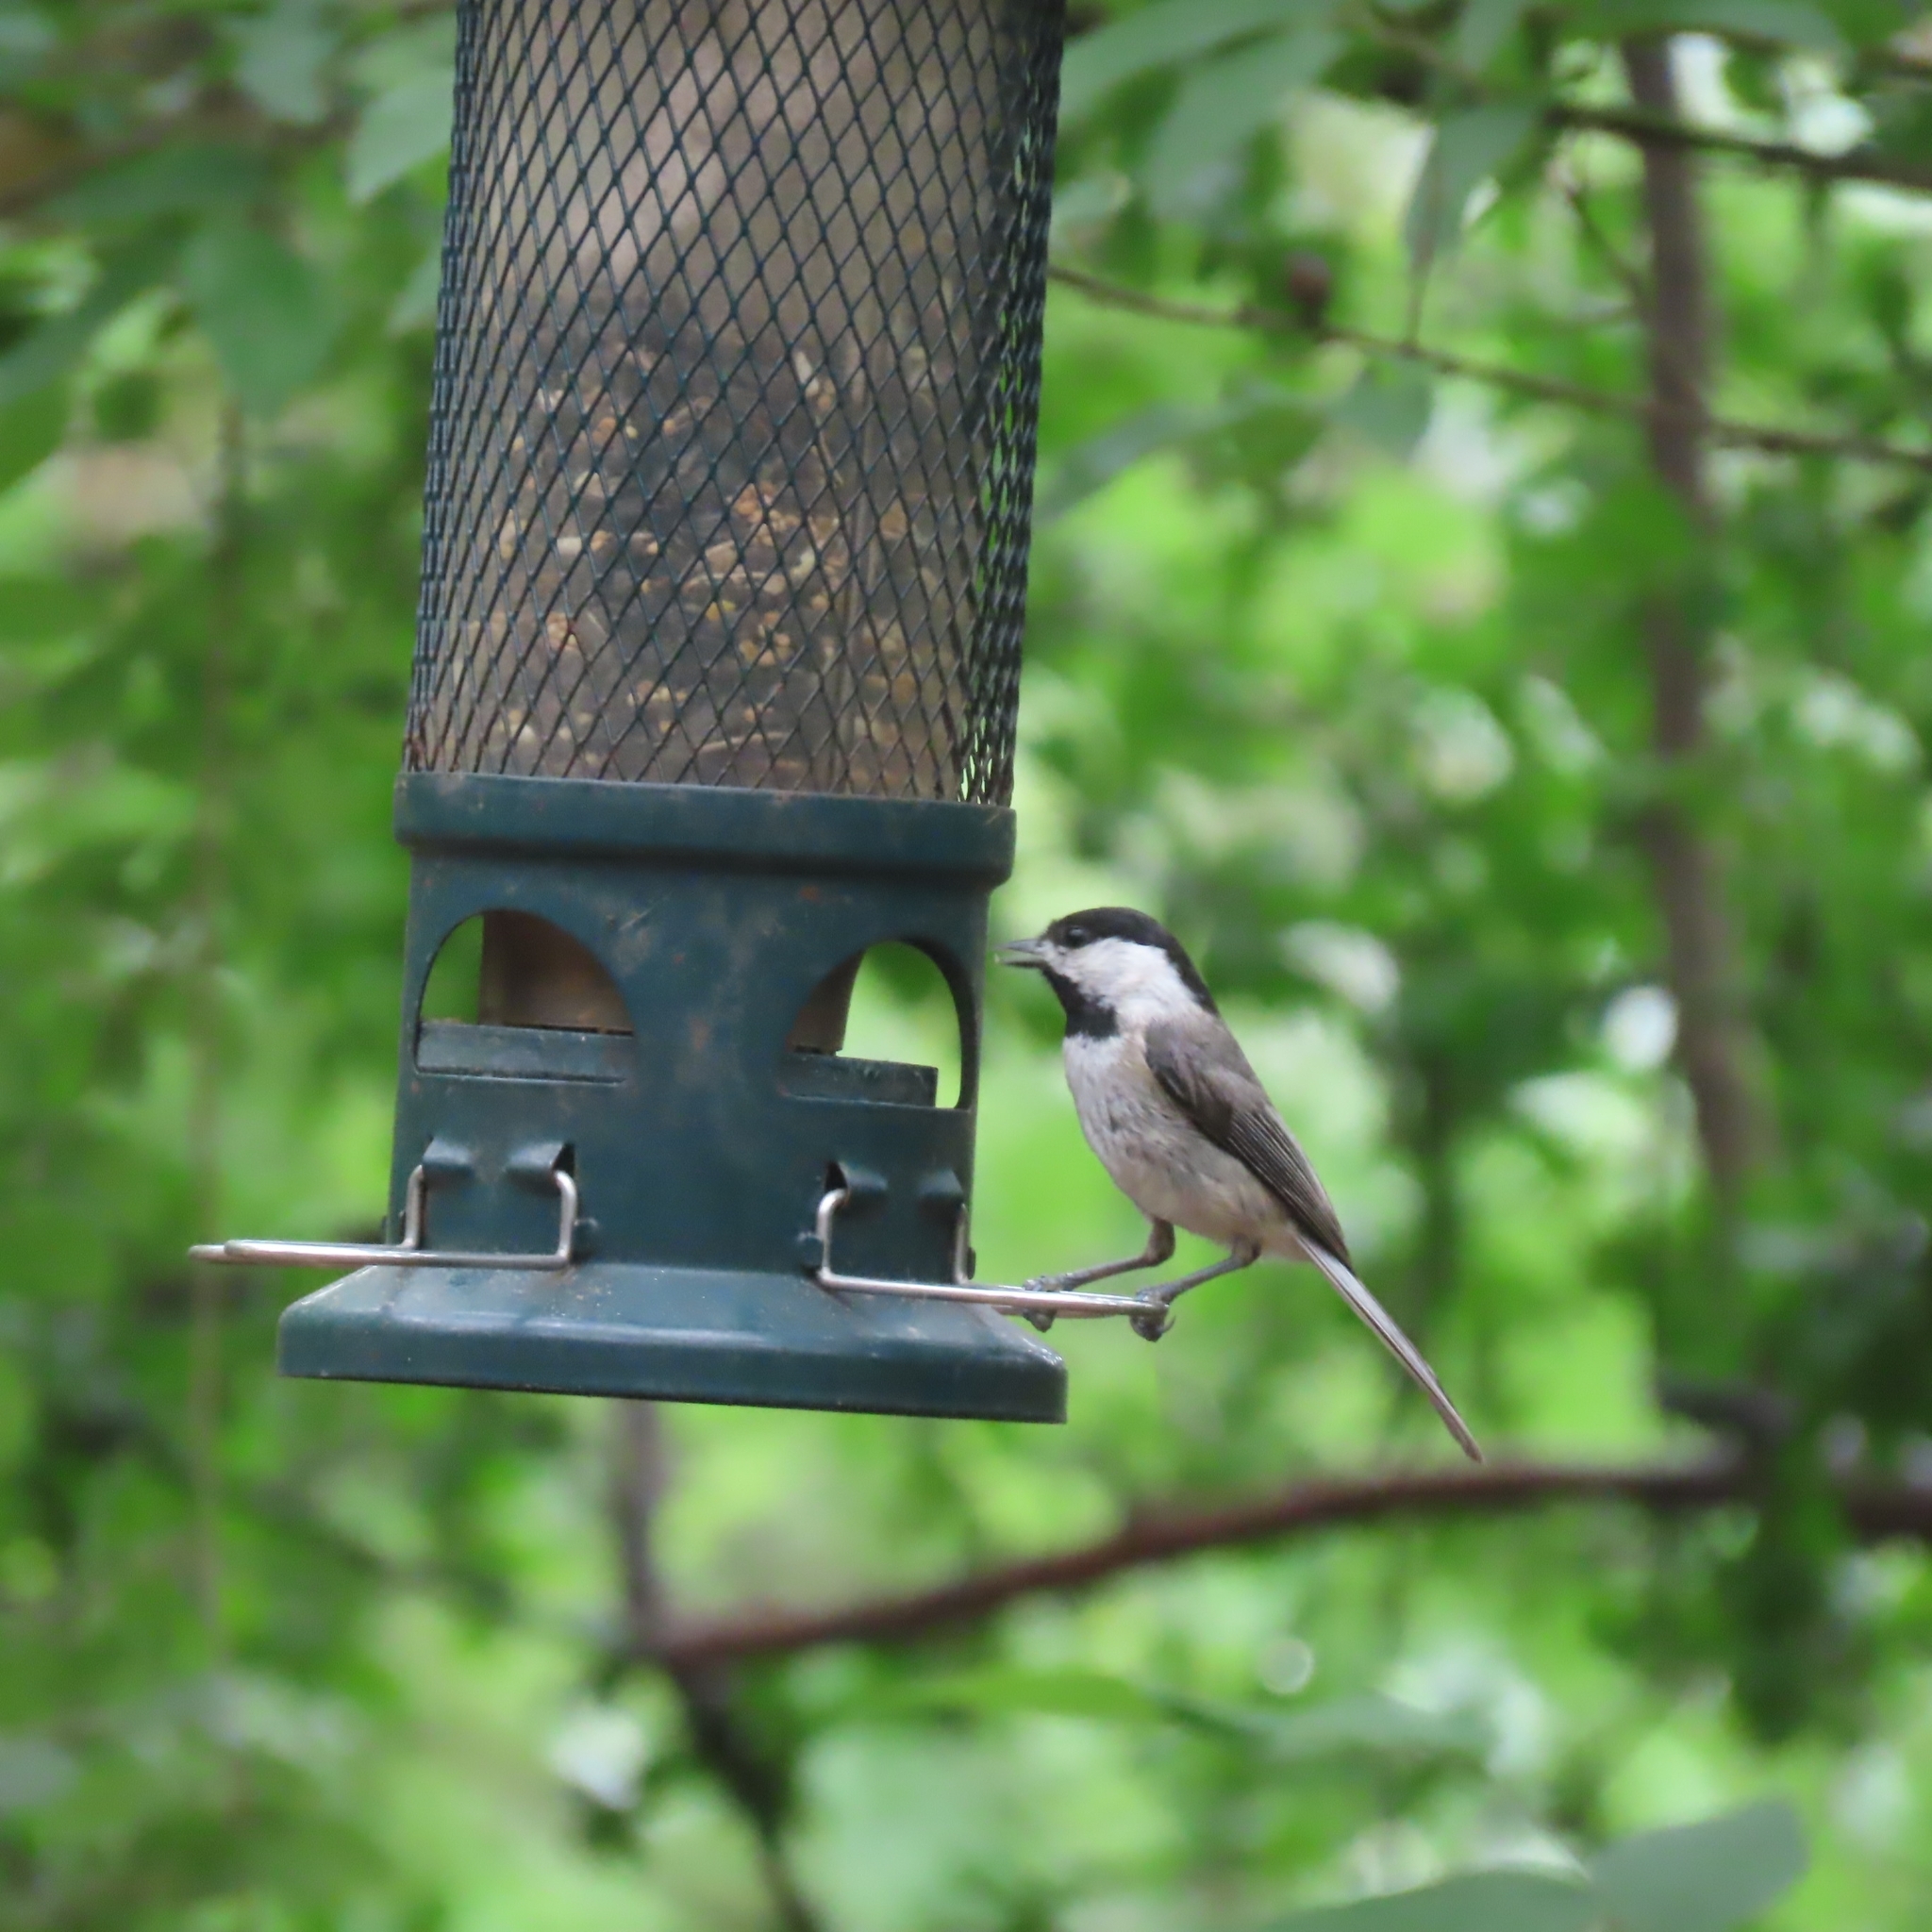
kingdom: Animalia
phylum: Chordata
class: Aves
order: Passeriformes
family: Paridae
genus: Poecile
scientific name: Poecile carolinensis
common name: Carolina chickadee
